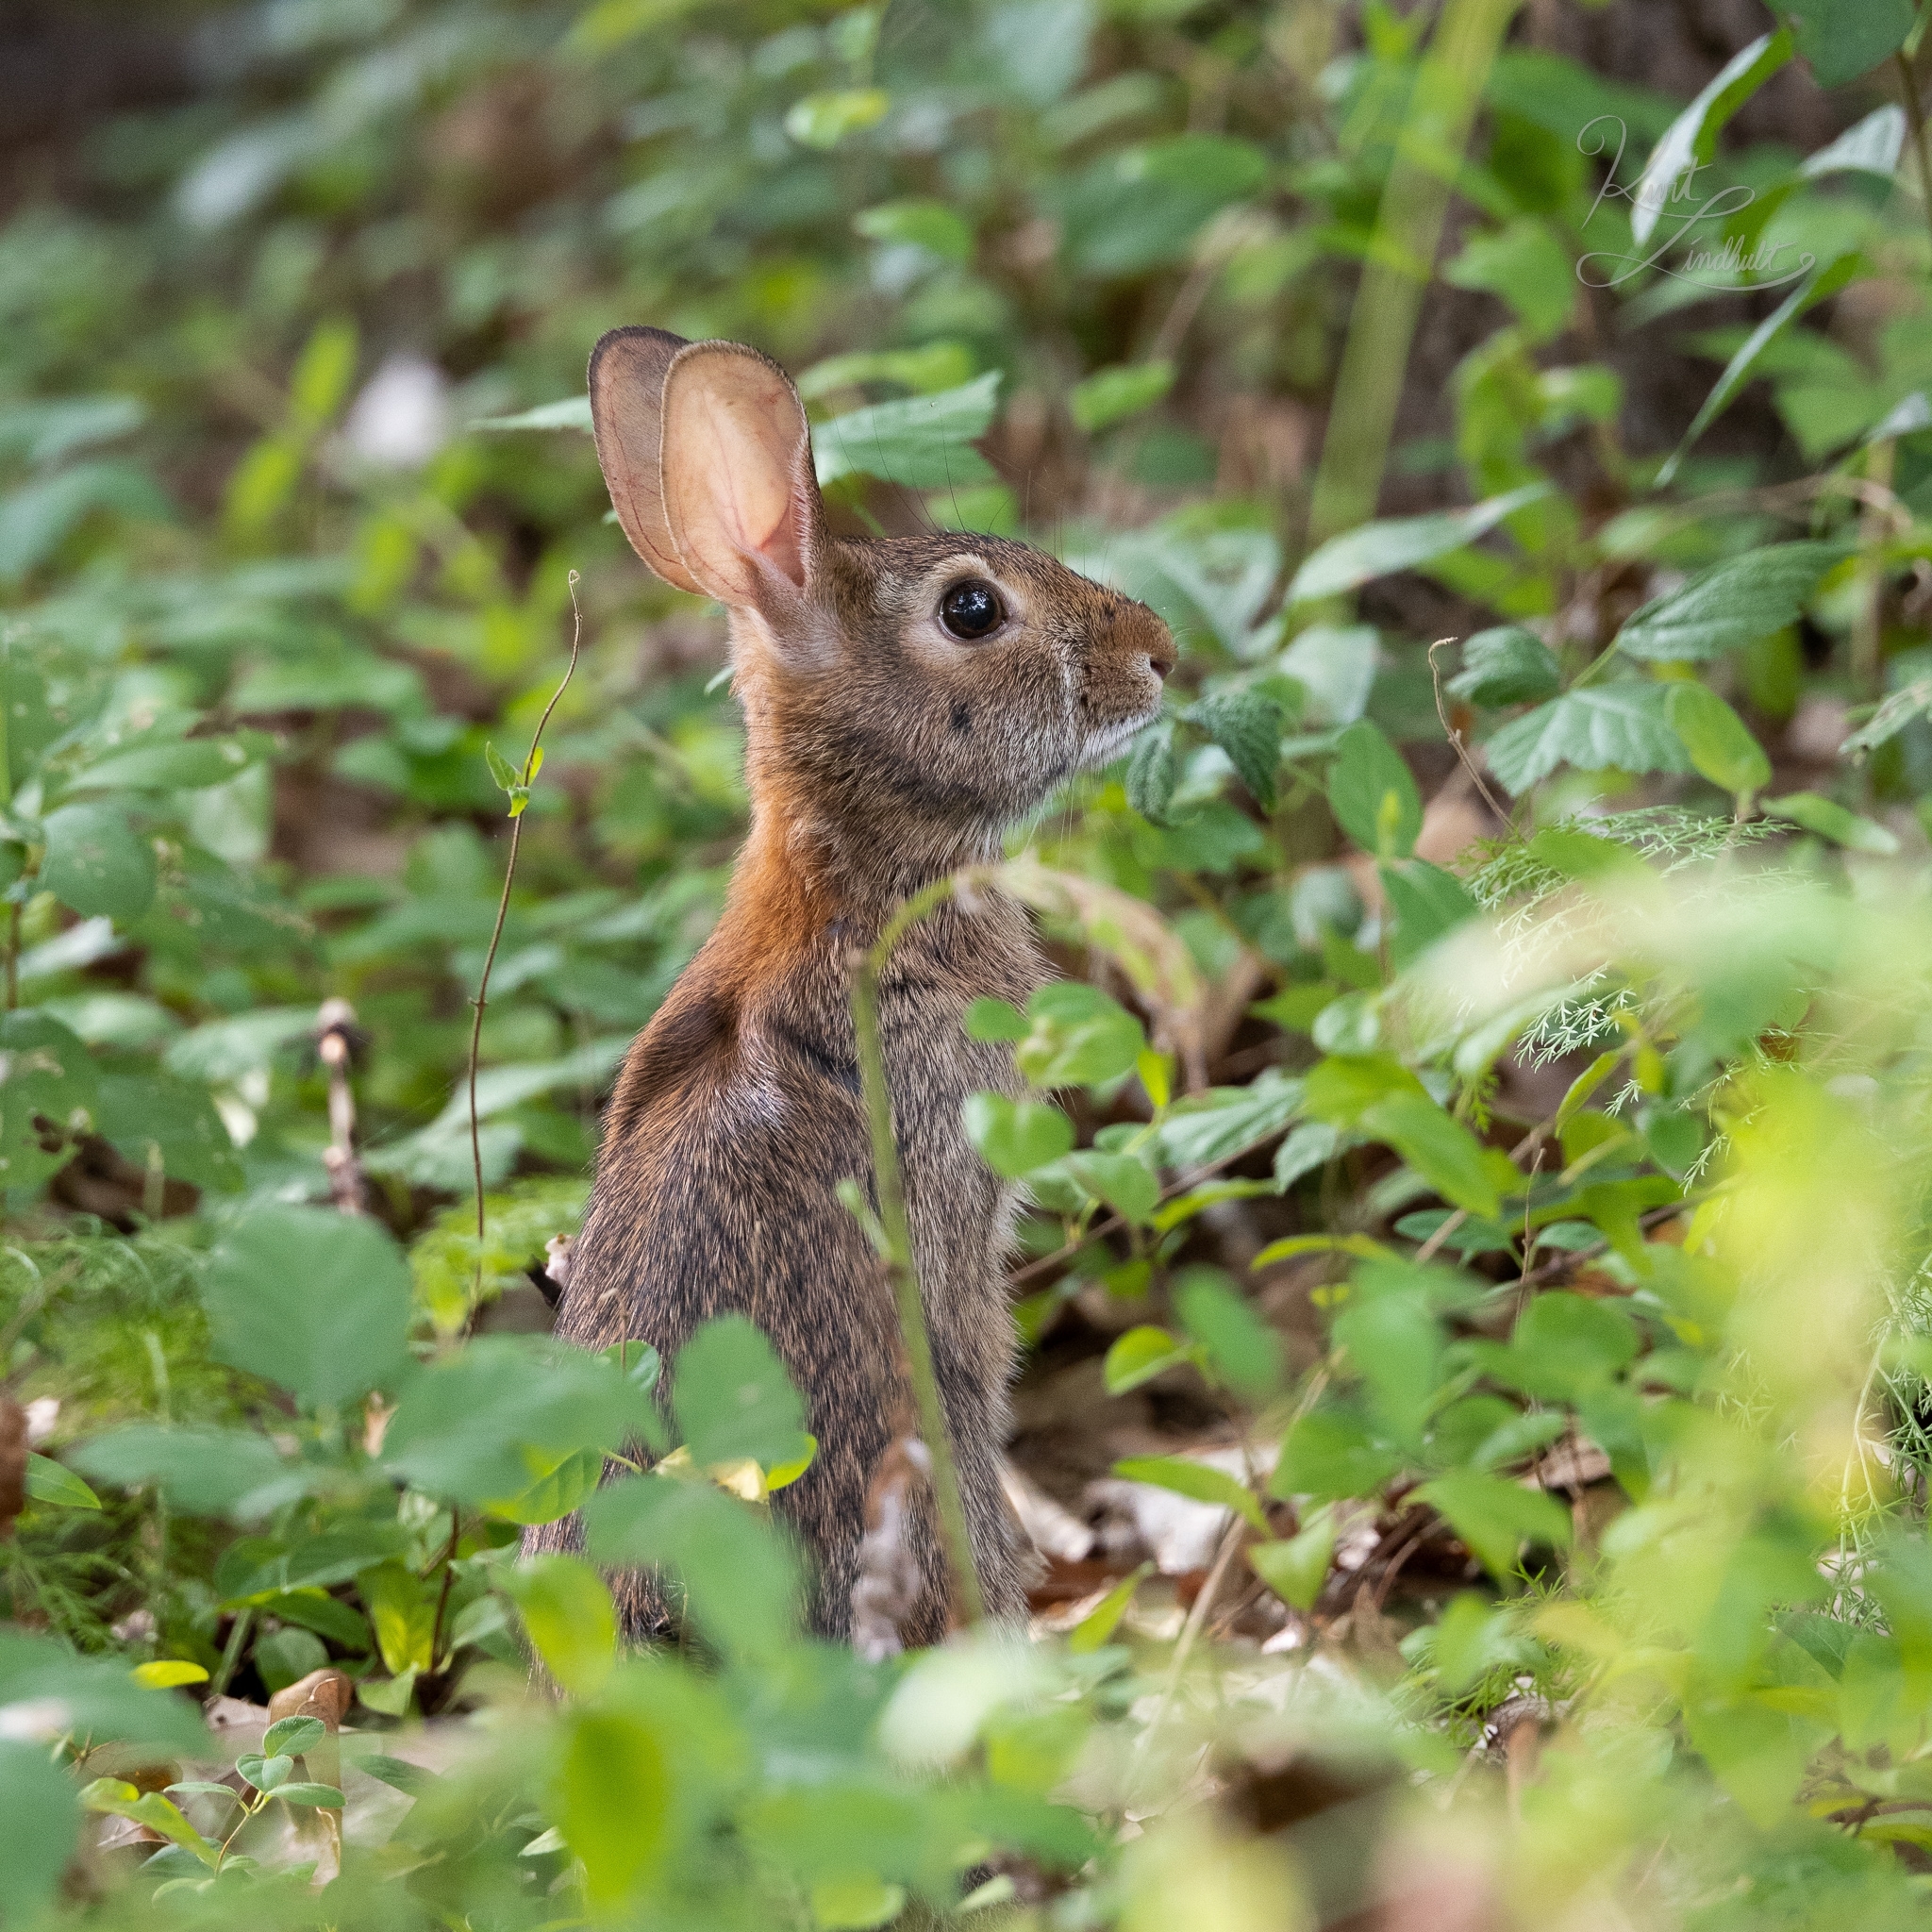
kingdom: Animalia
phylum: Chordata
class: Mammalia
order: Lagomorpha
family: Leporidae
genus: Sylvilagus
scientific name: Sylvilagus floridanus
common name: Eastern cottontail
